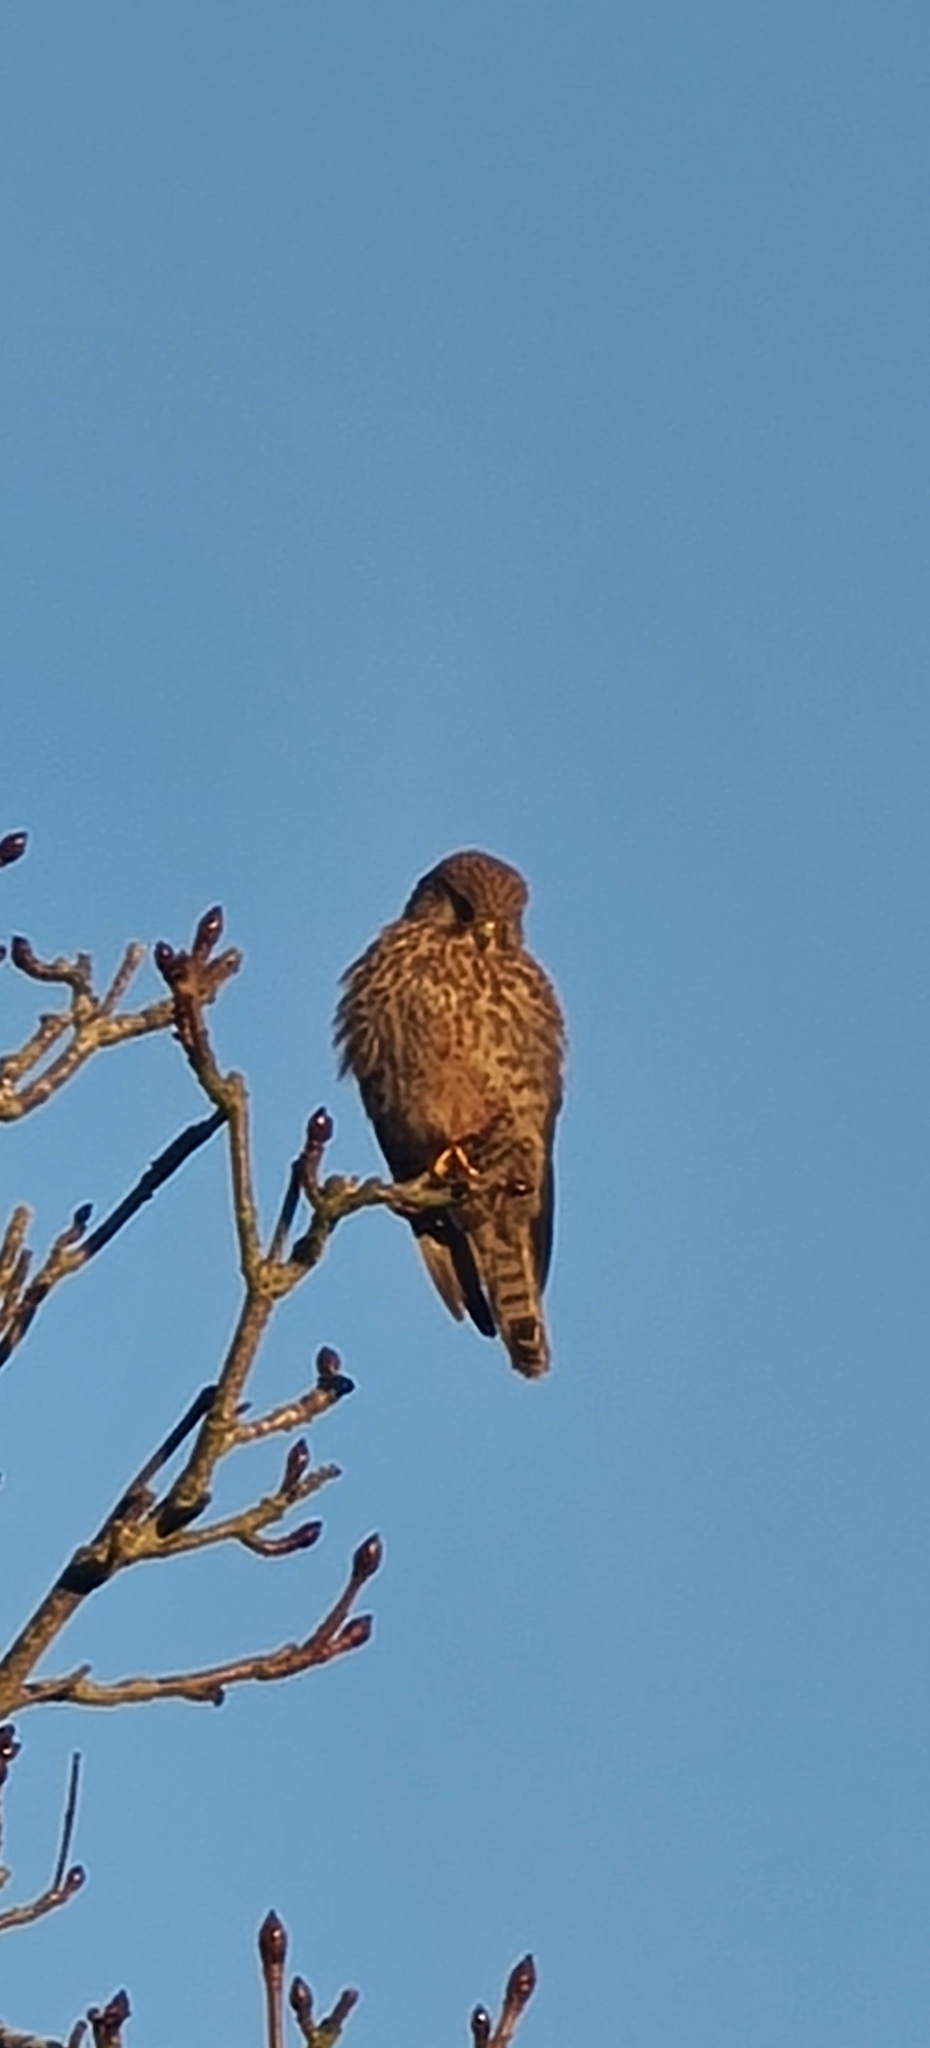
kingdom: Animalia
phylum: Chordata
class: Aves
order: Falconiformes
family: Falconidae
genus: Falco
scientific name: Falco tinnunculus
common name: Common kestrel
